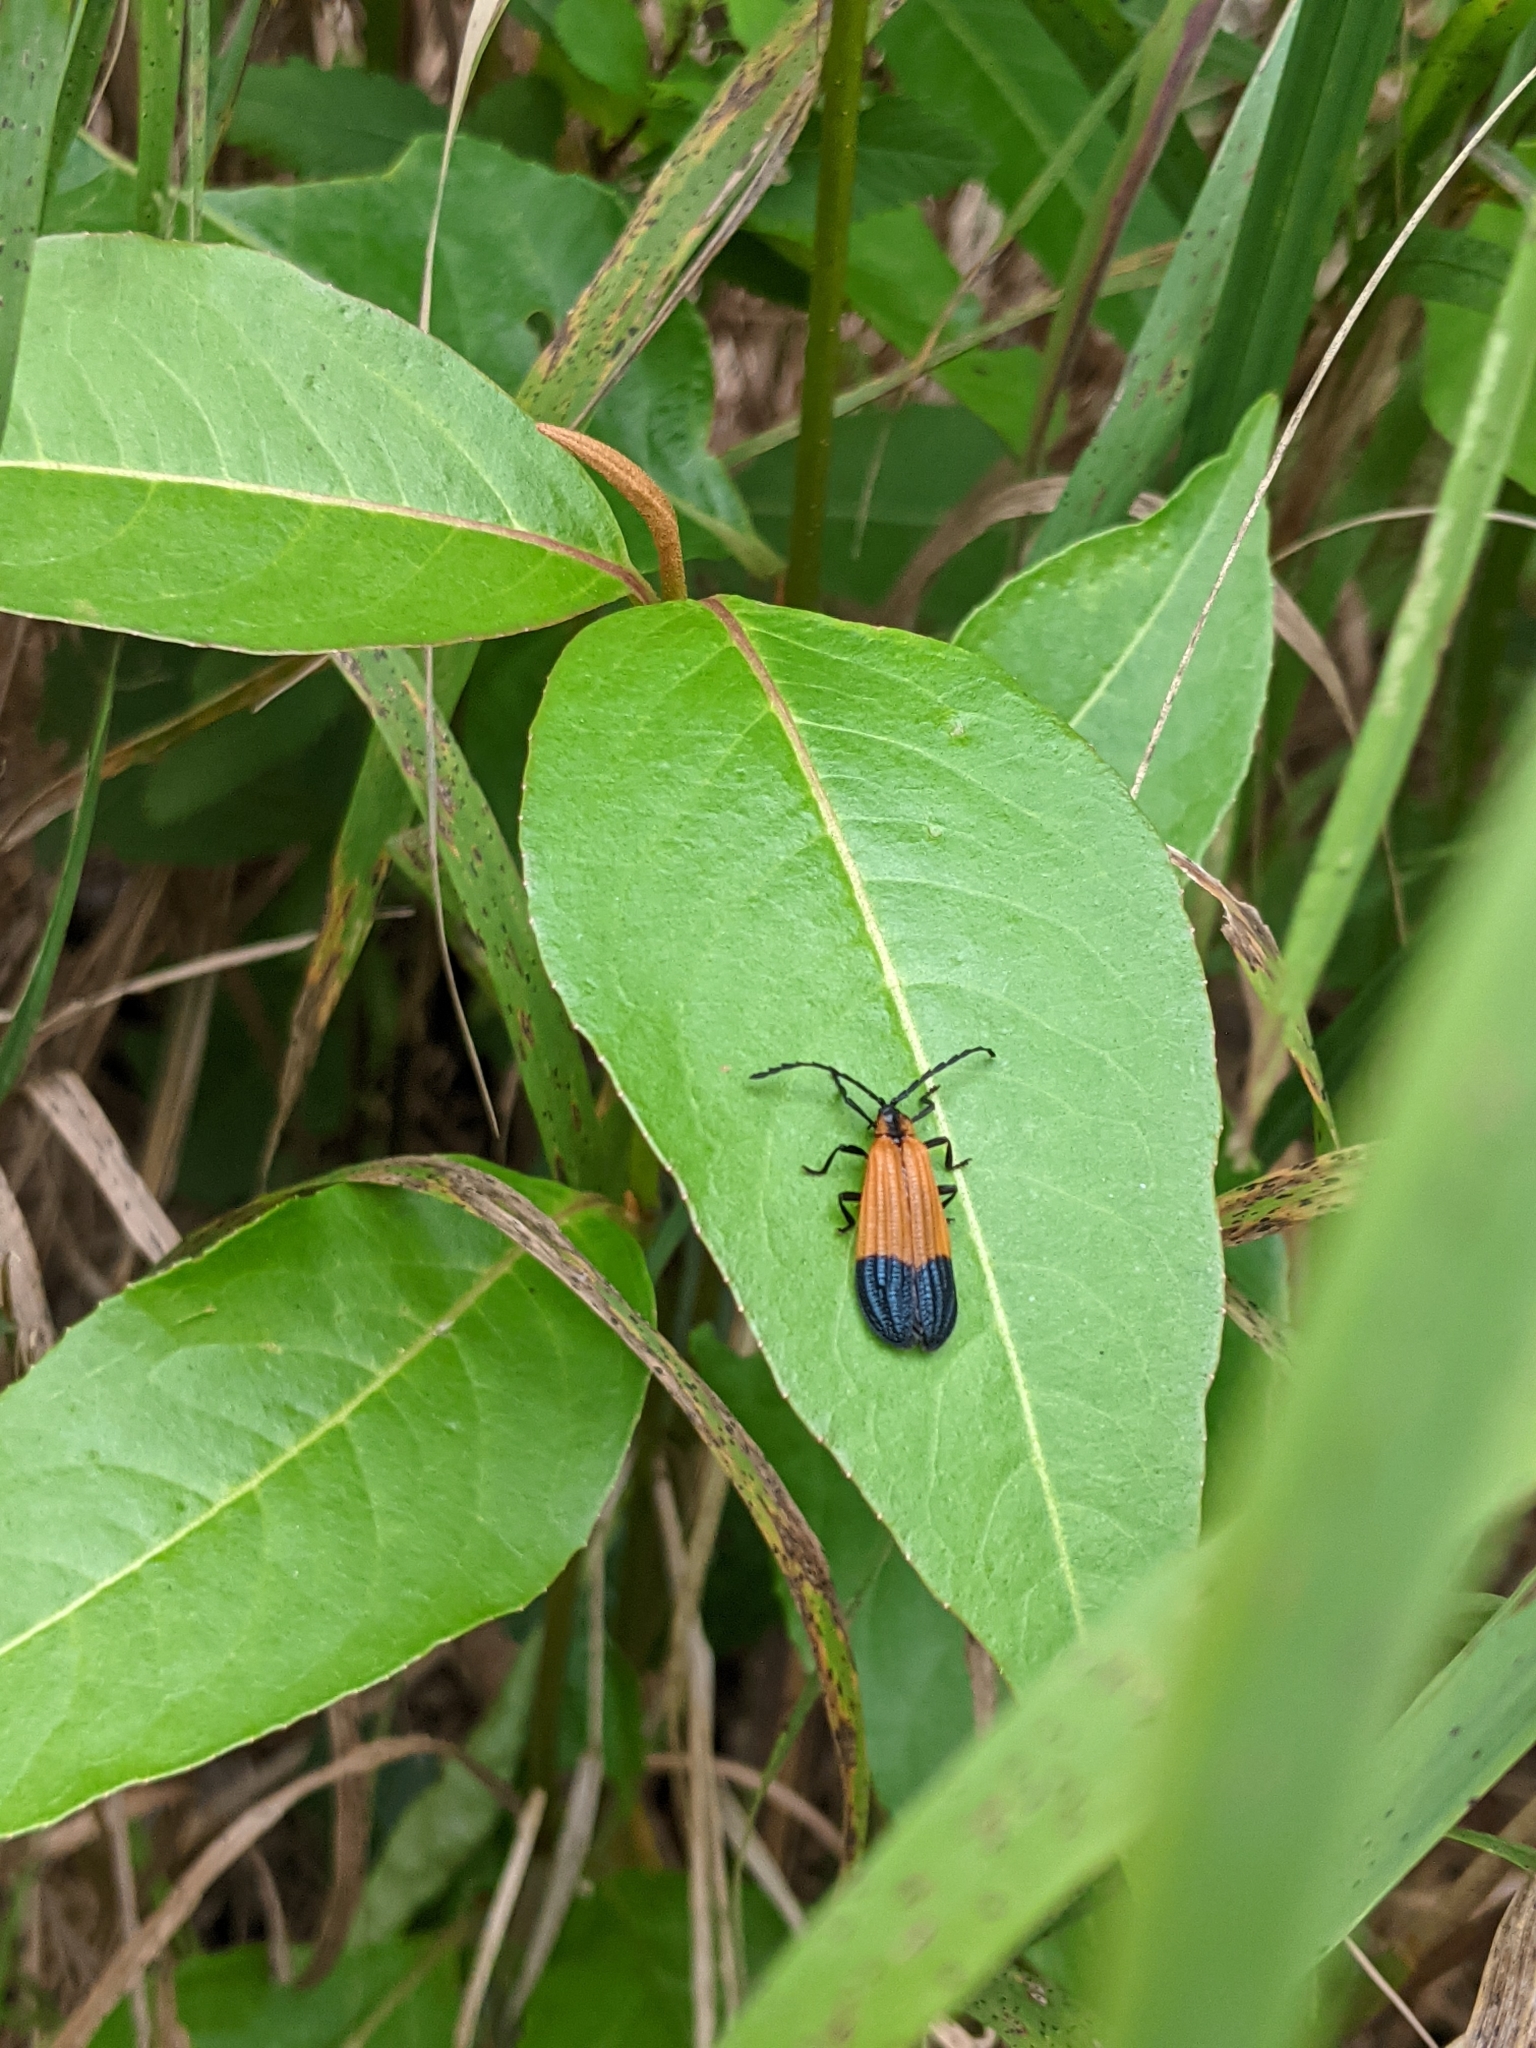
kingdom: Animalia
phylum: Arthropoda
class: Insecta
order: Coleoptera
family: Lycidae
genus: Calopteron
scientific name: Calopteron terminale
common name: End band net-winged beetle
